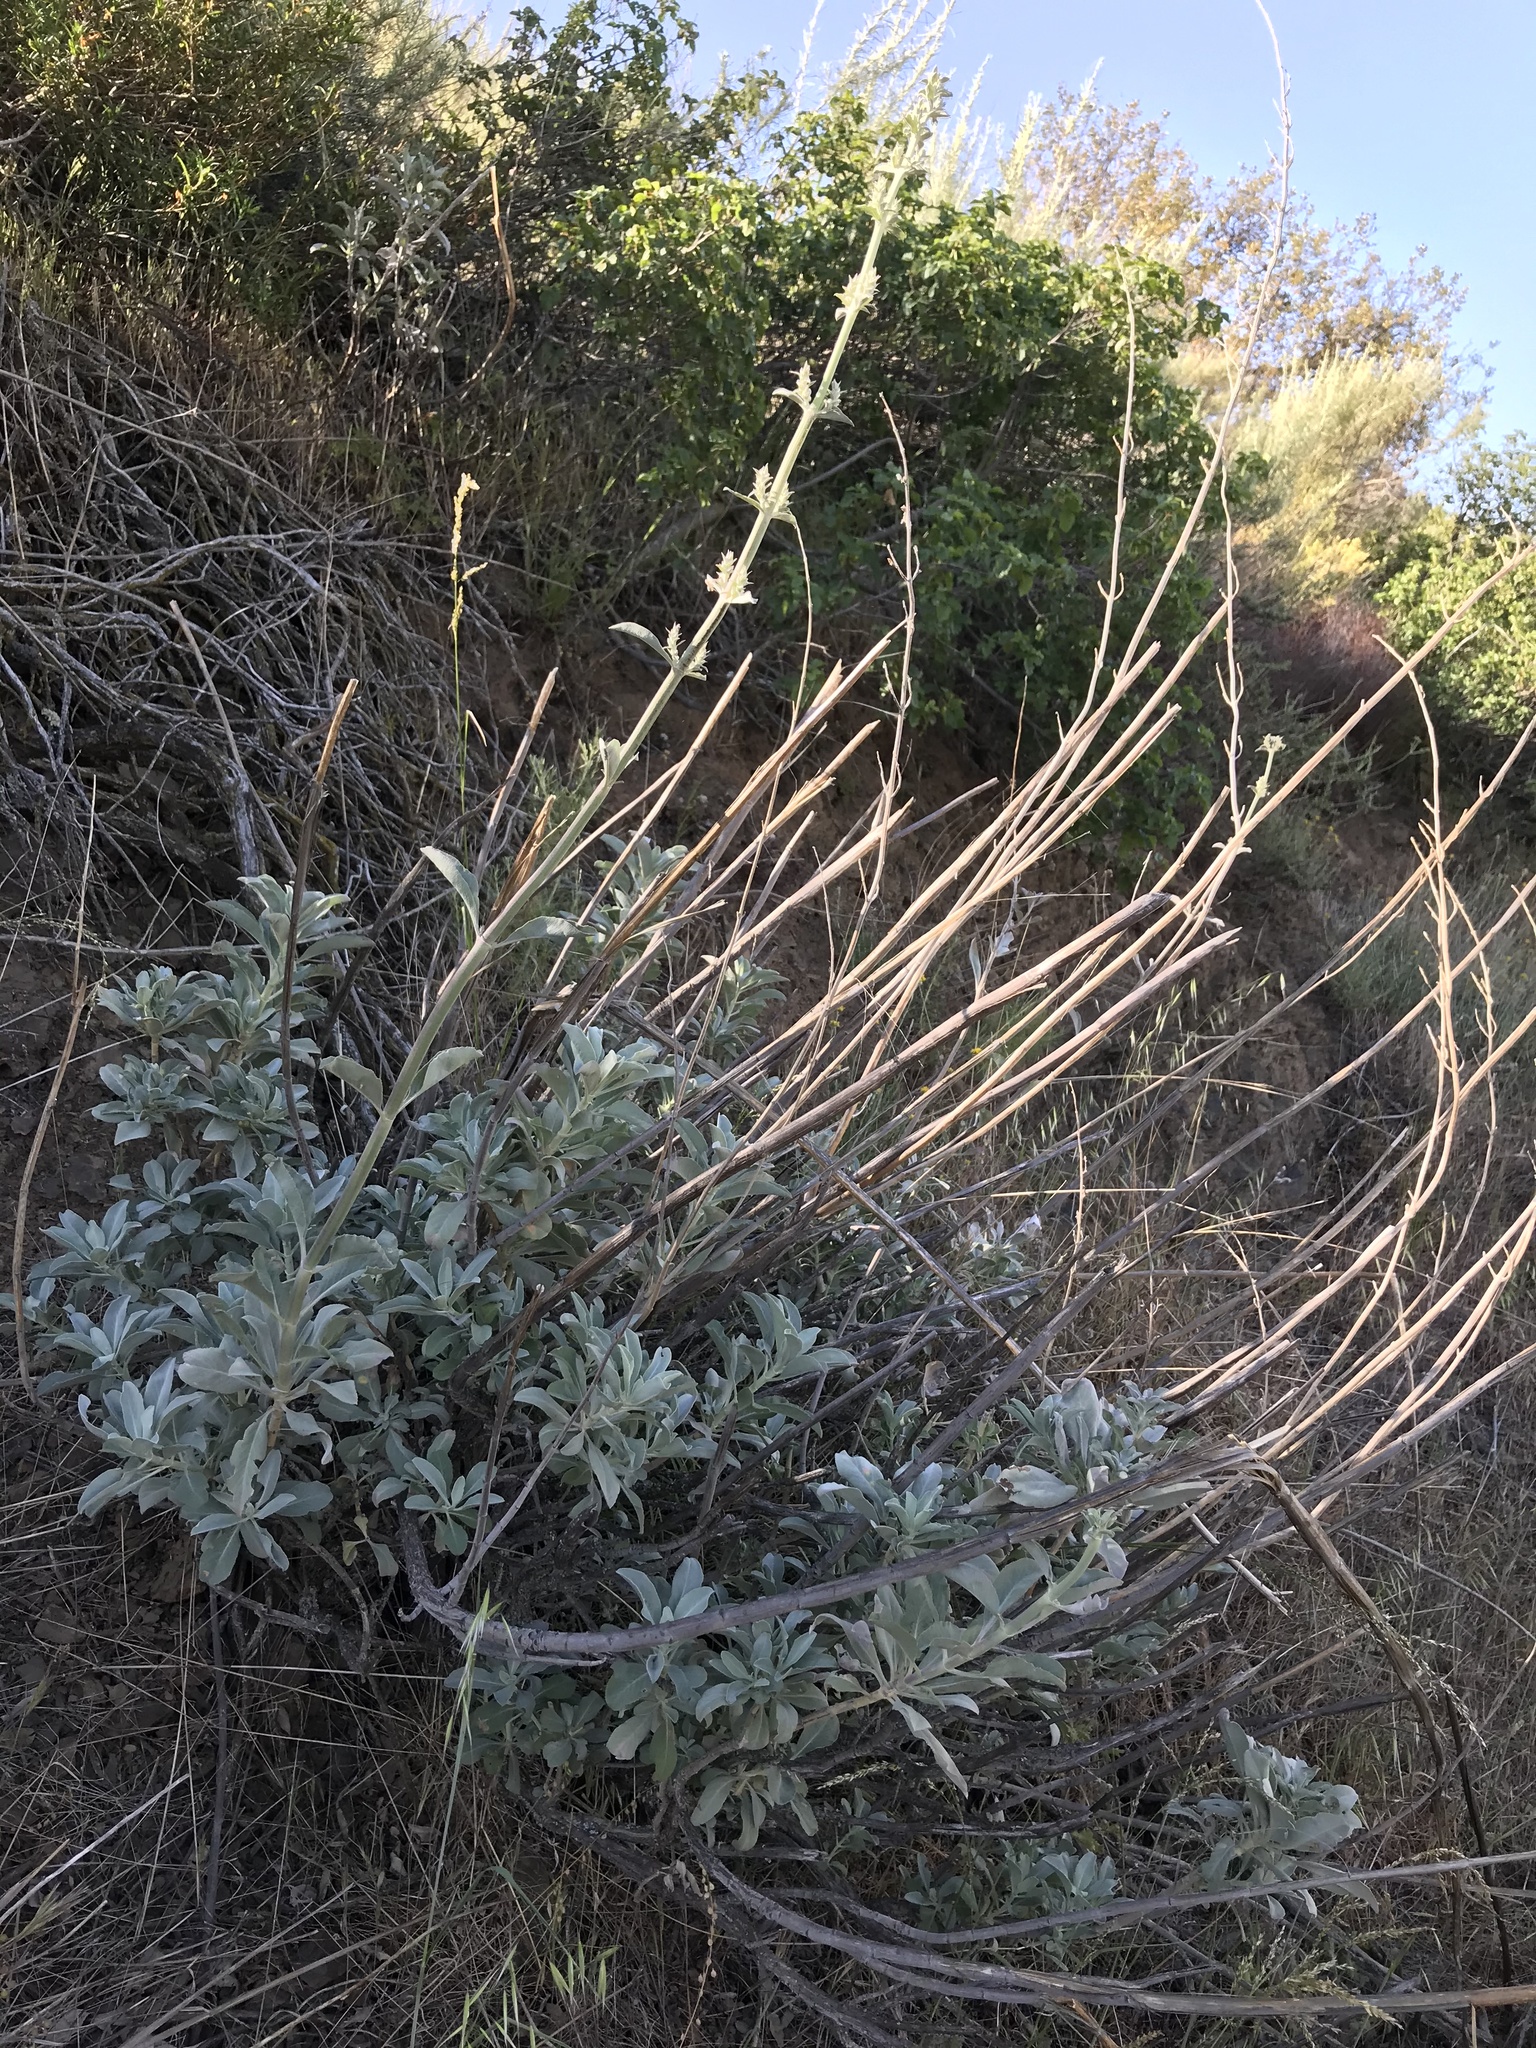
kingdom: Plantae
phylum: Tracheophyta
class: Magnoliopsida
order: Lamiales
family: Lamiaceae
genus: Salvia
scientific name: Salvia apiana
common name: White sage
